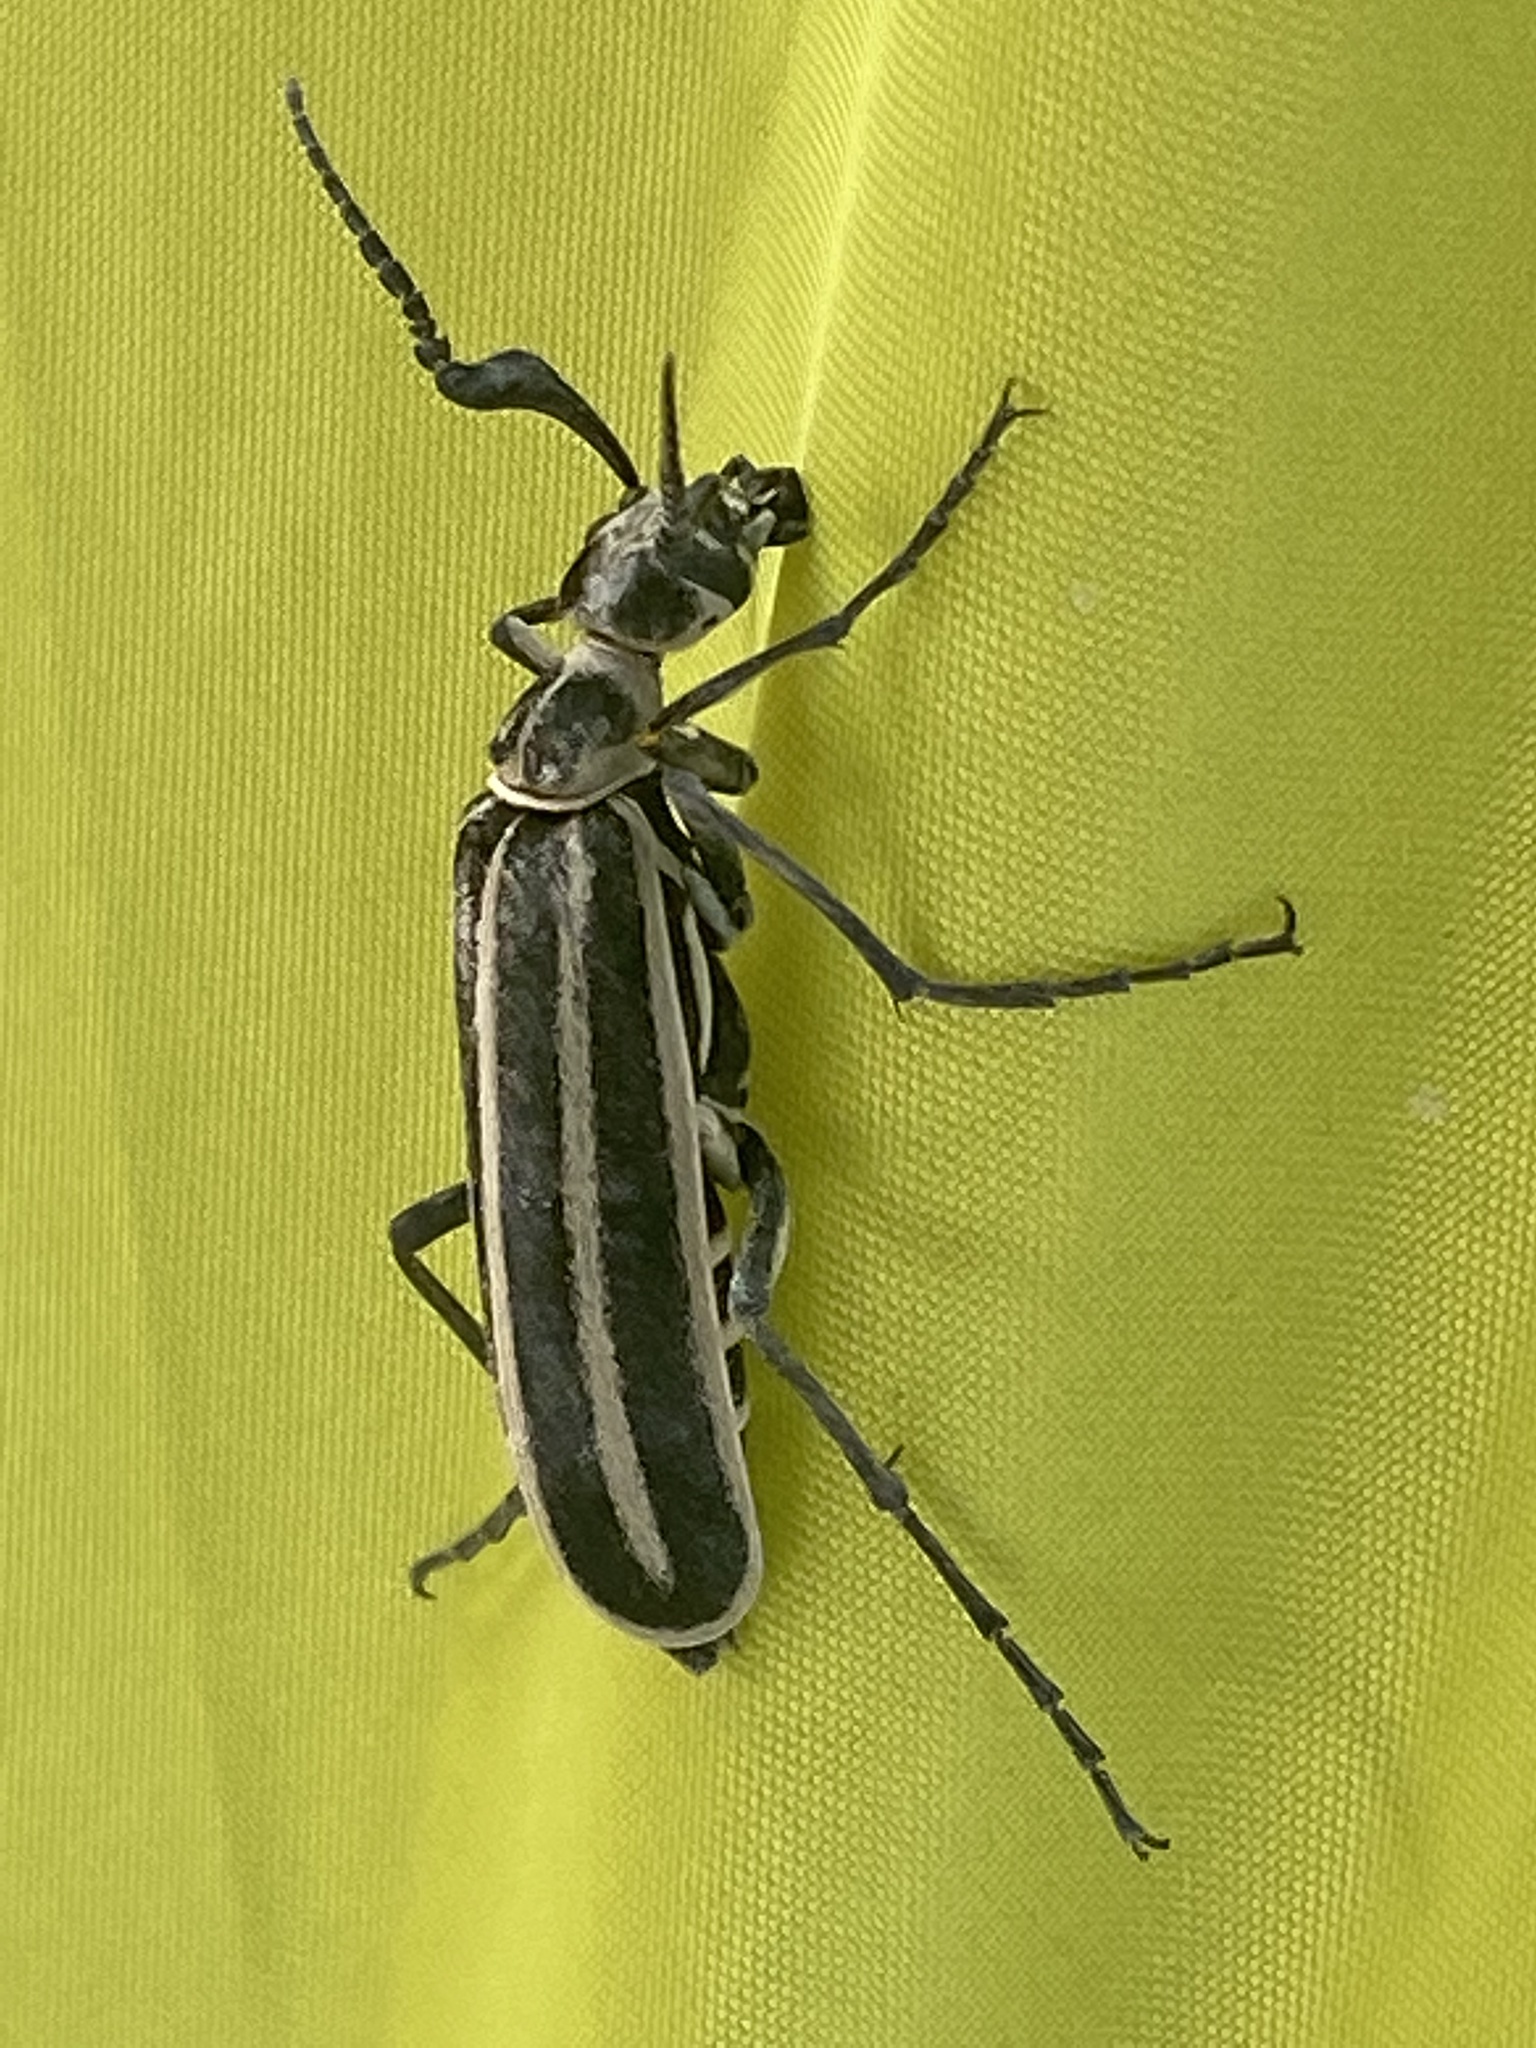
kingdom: Animalia
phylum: Arthropoda
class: Insecta
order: Coleoptera
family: Meloidae
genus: Epicauta
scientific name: Epicauta atrivittata
